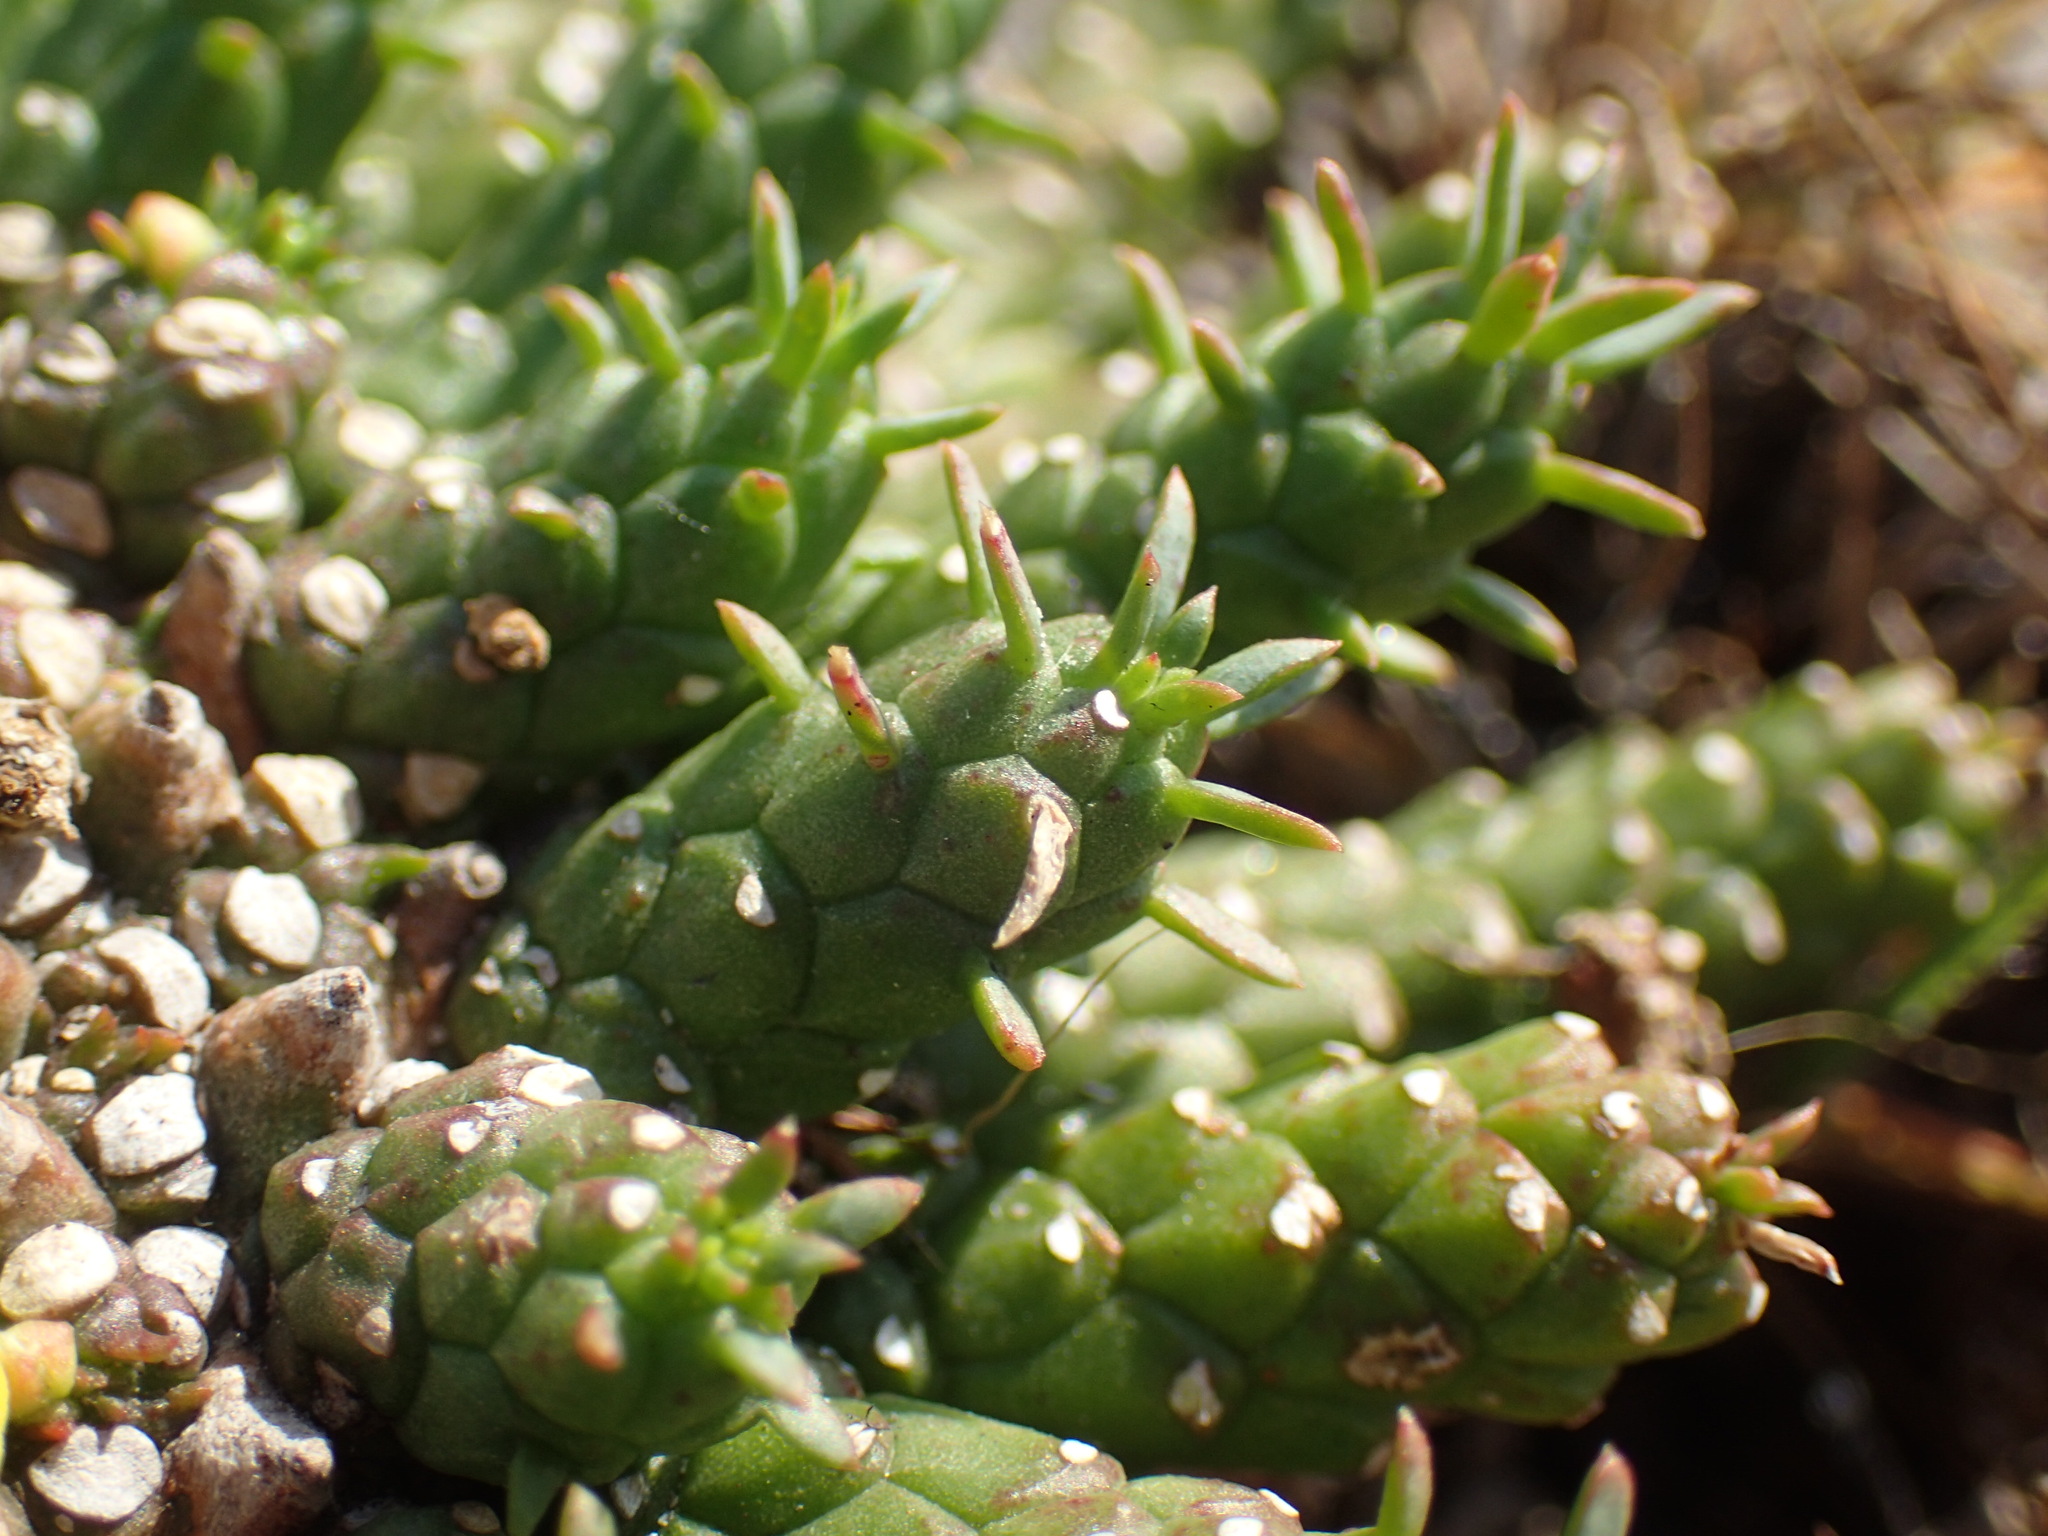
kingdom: Plantae
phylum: Tracheophyta
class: Magnoliopsida
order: Malpighiales
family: Euphorbiaceae
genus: Euphorbia
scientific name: Euphorbia flanaganii
